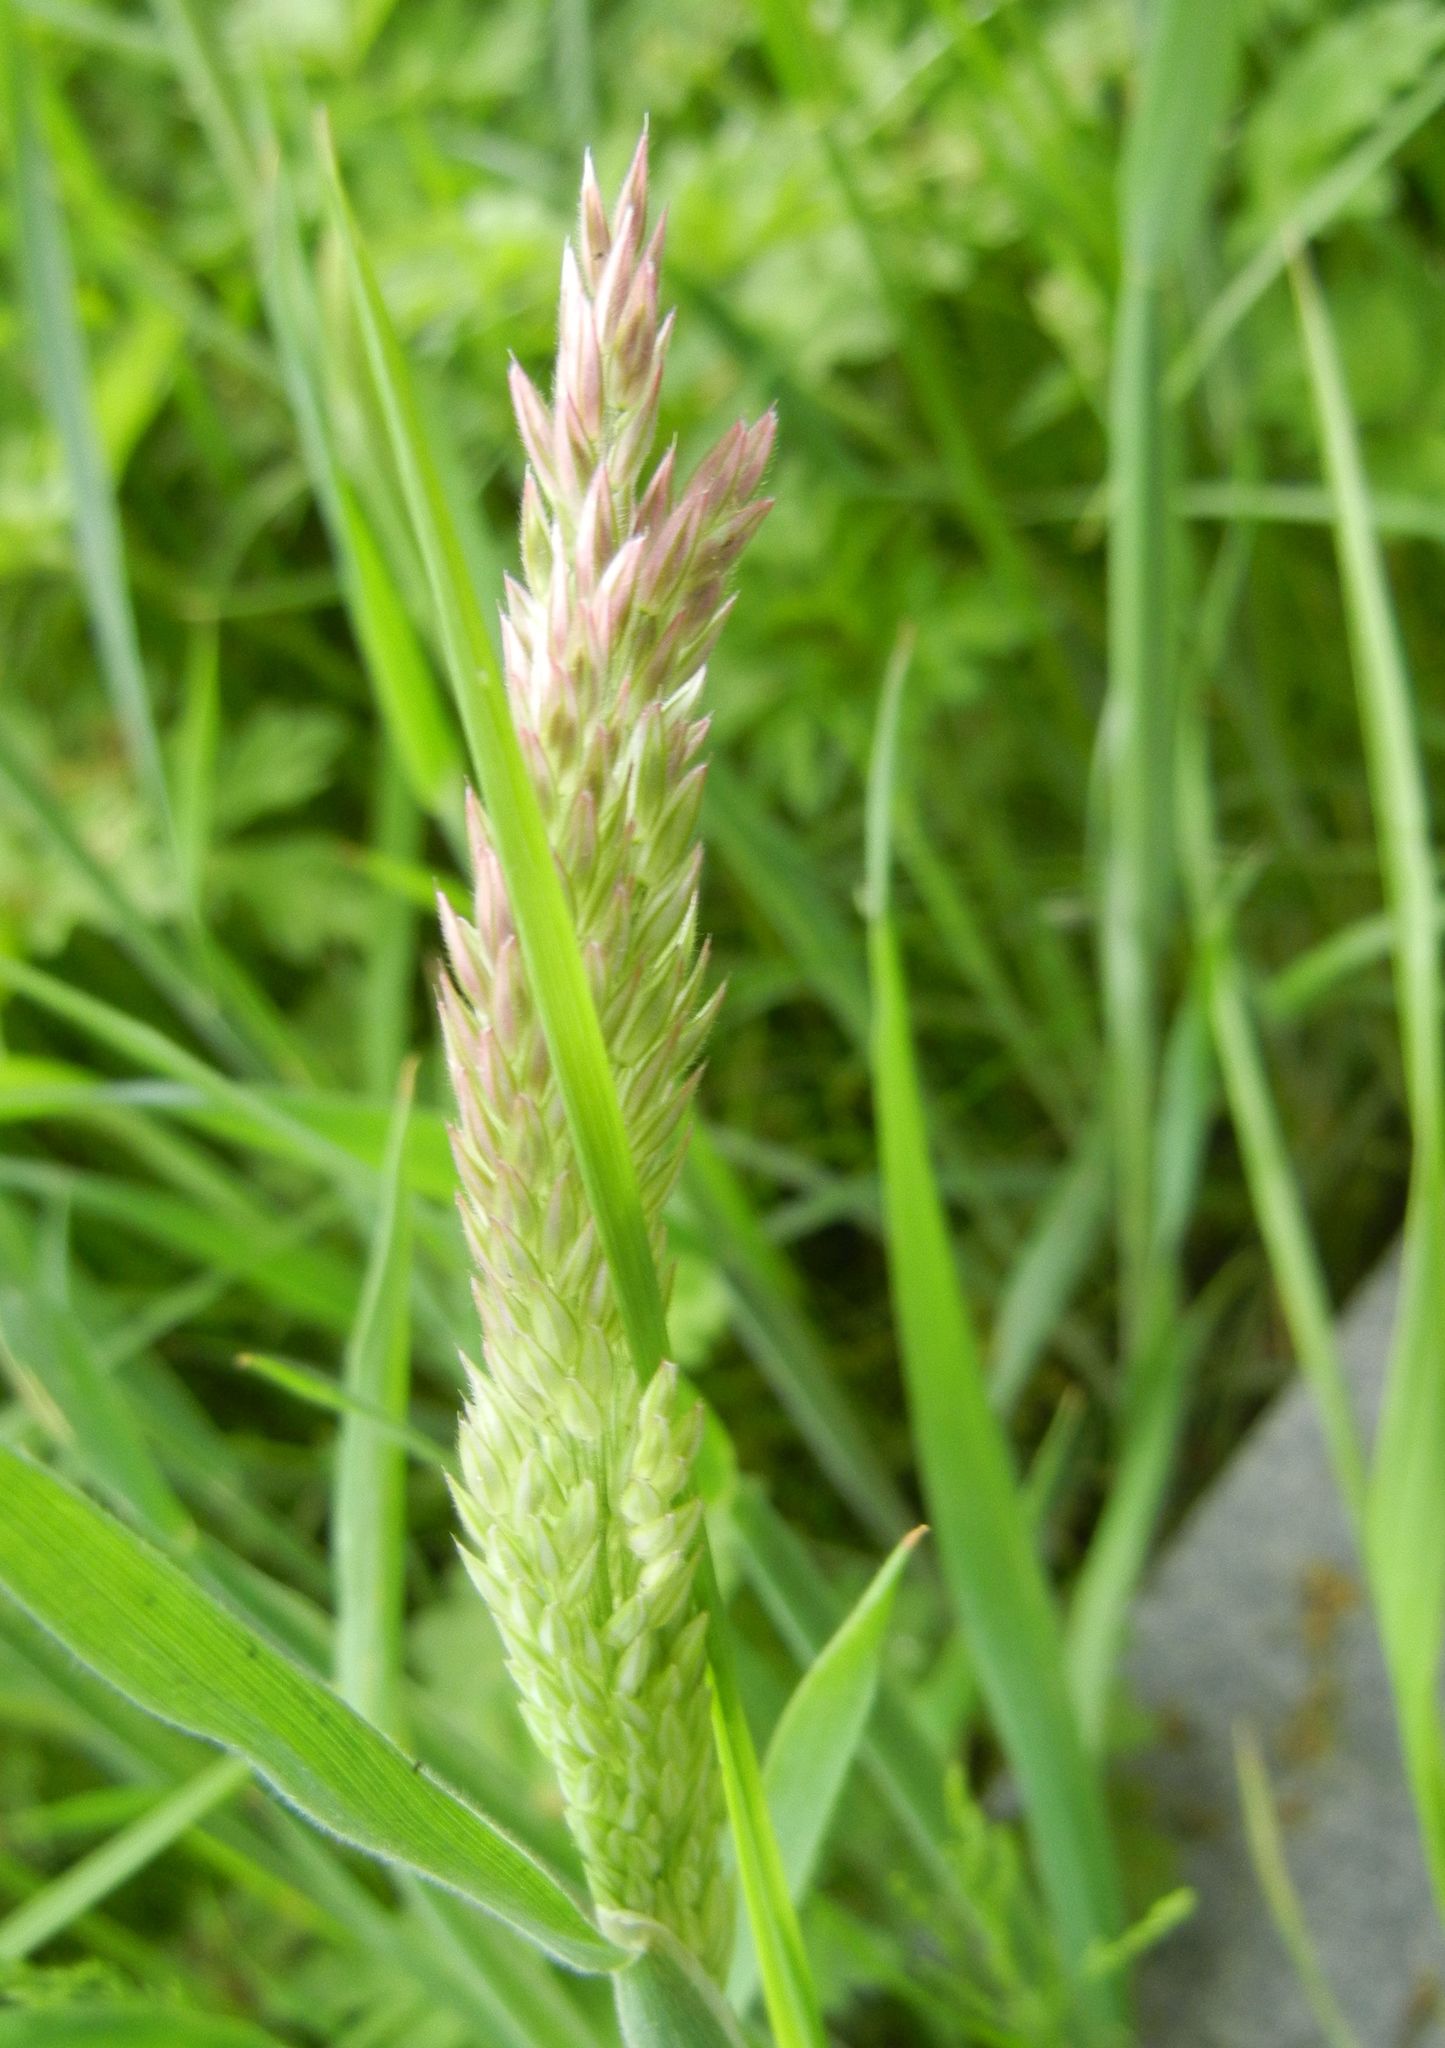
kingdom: Plantae
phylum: Tracheophyta
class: Liliopsida
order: Poales
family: Poaceae
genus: Holcus
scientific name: Holcus lanatus
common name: Yorkshire-fog
